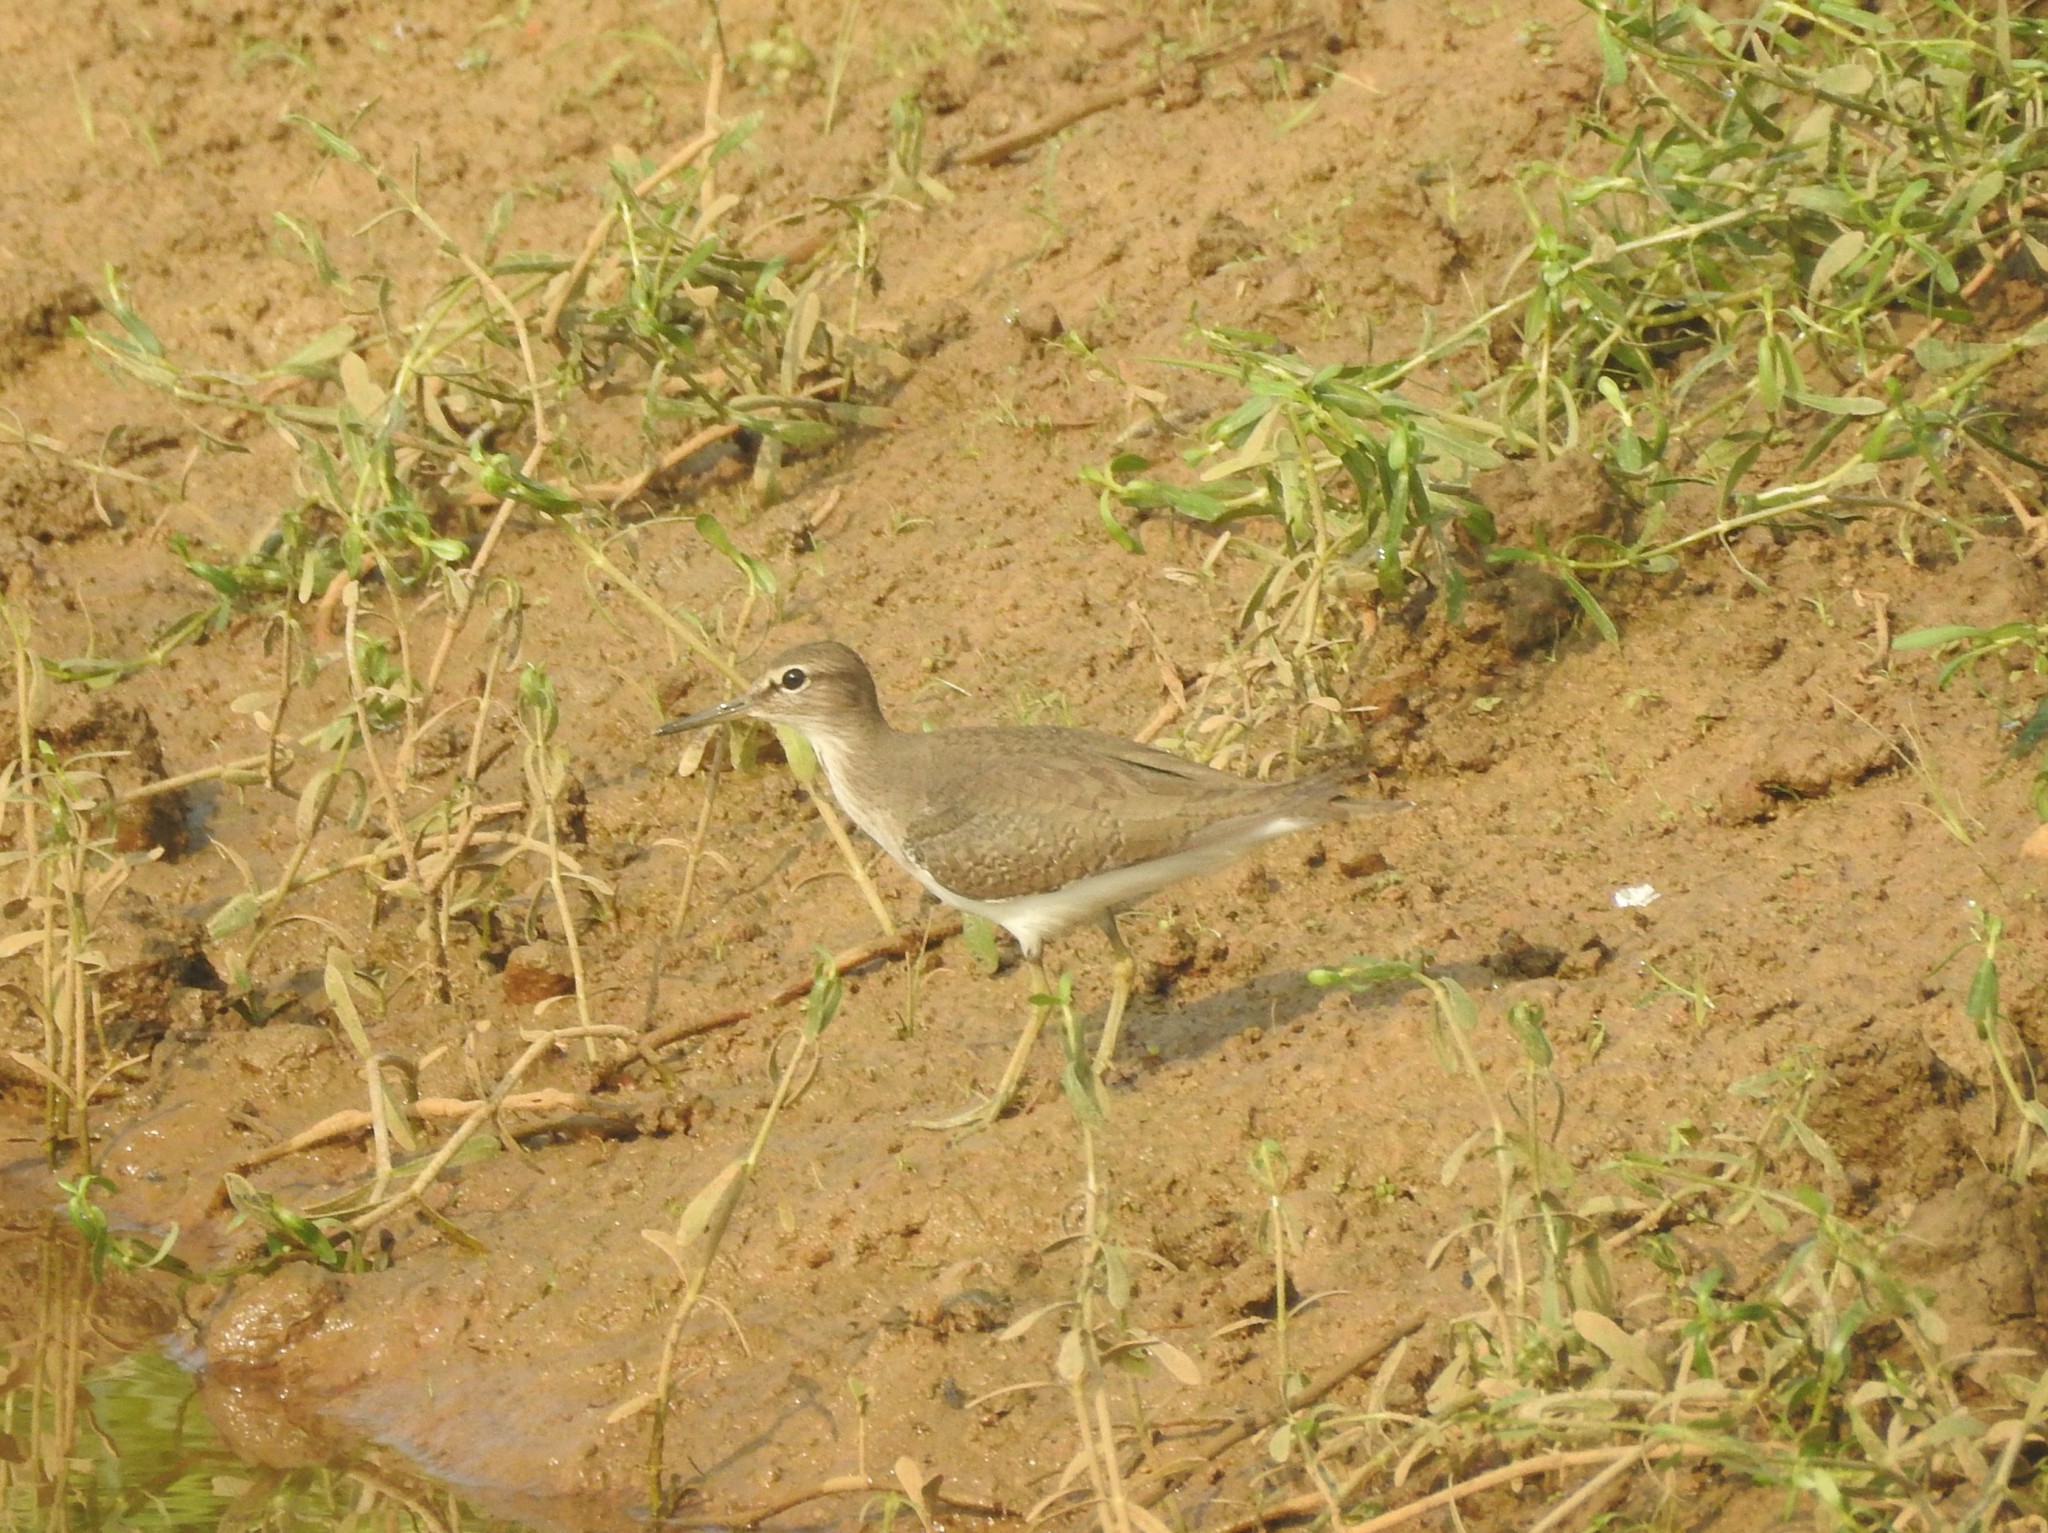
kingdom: Animalia
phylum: Chordata
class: Aves
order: Charadriiformes
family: Scolopacidae
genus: Actitis
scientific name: Actitis hypoleucos
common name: Common sandpiper
